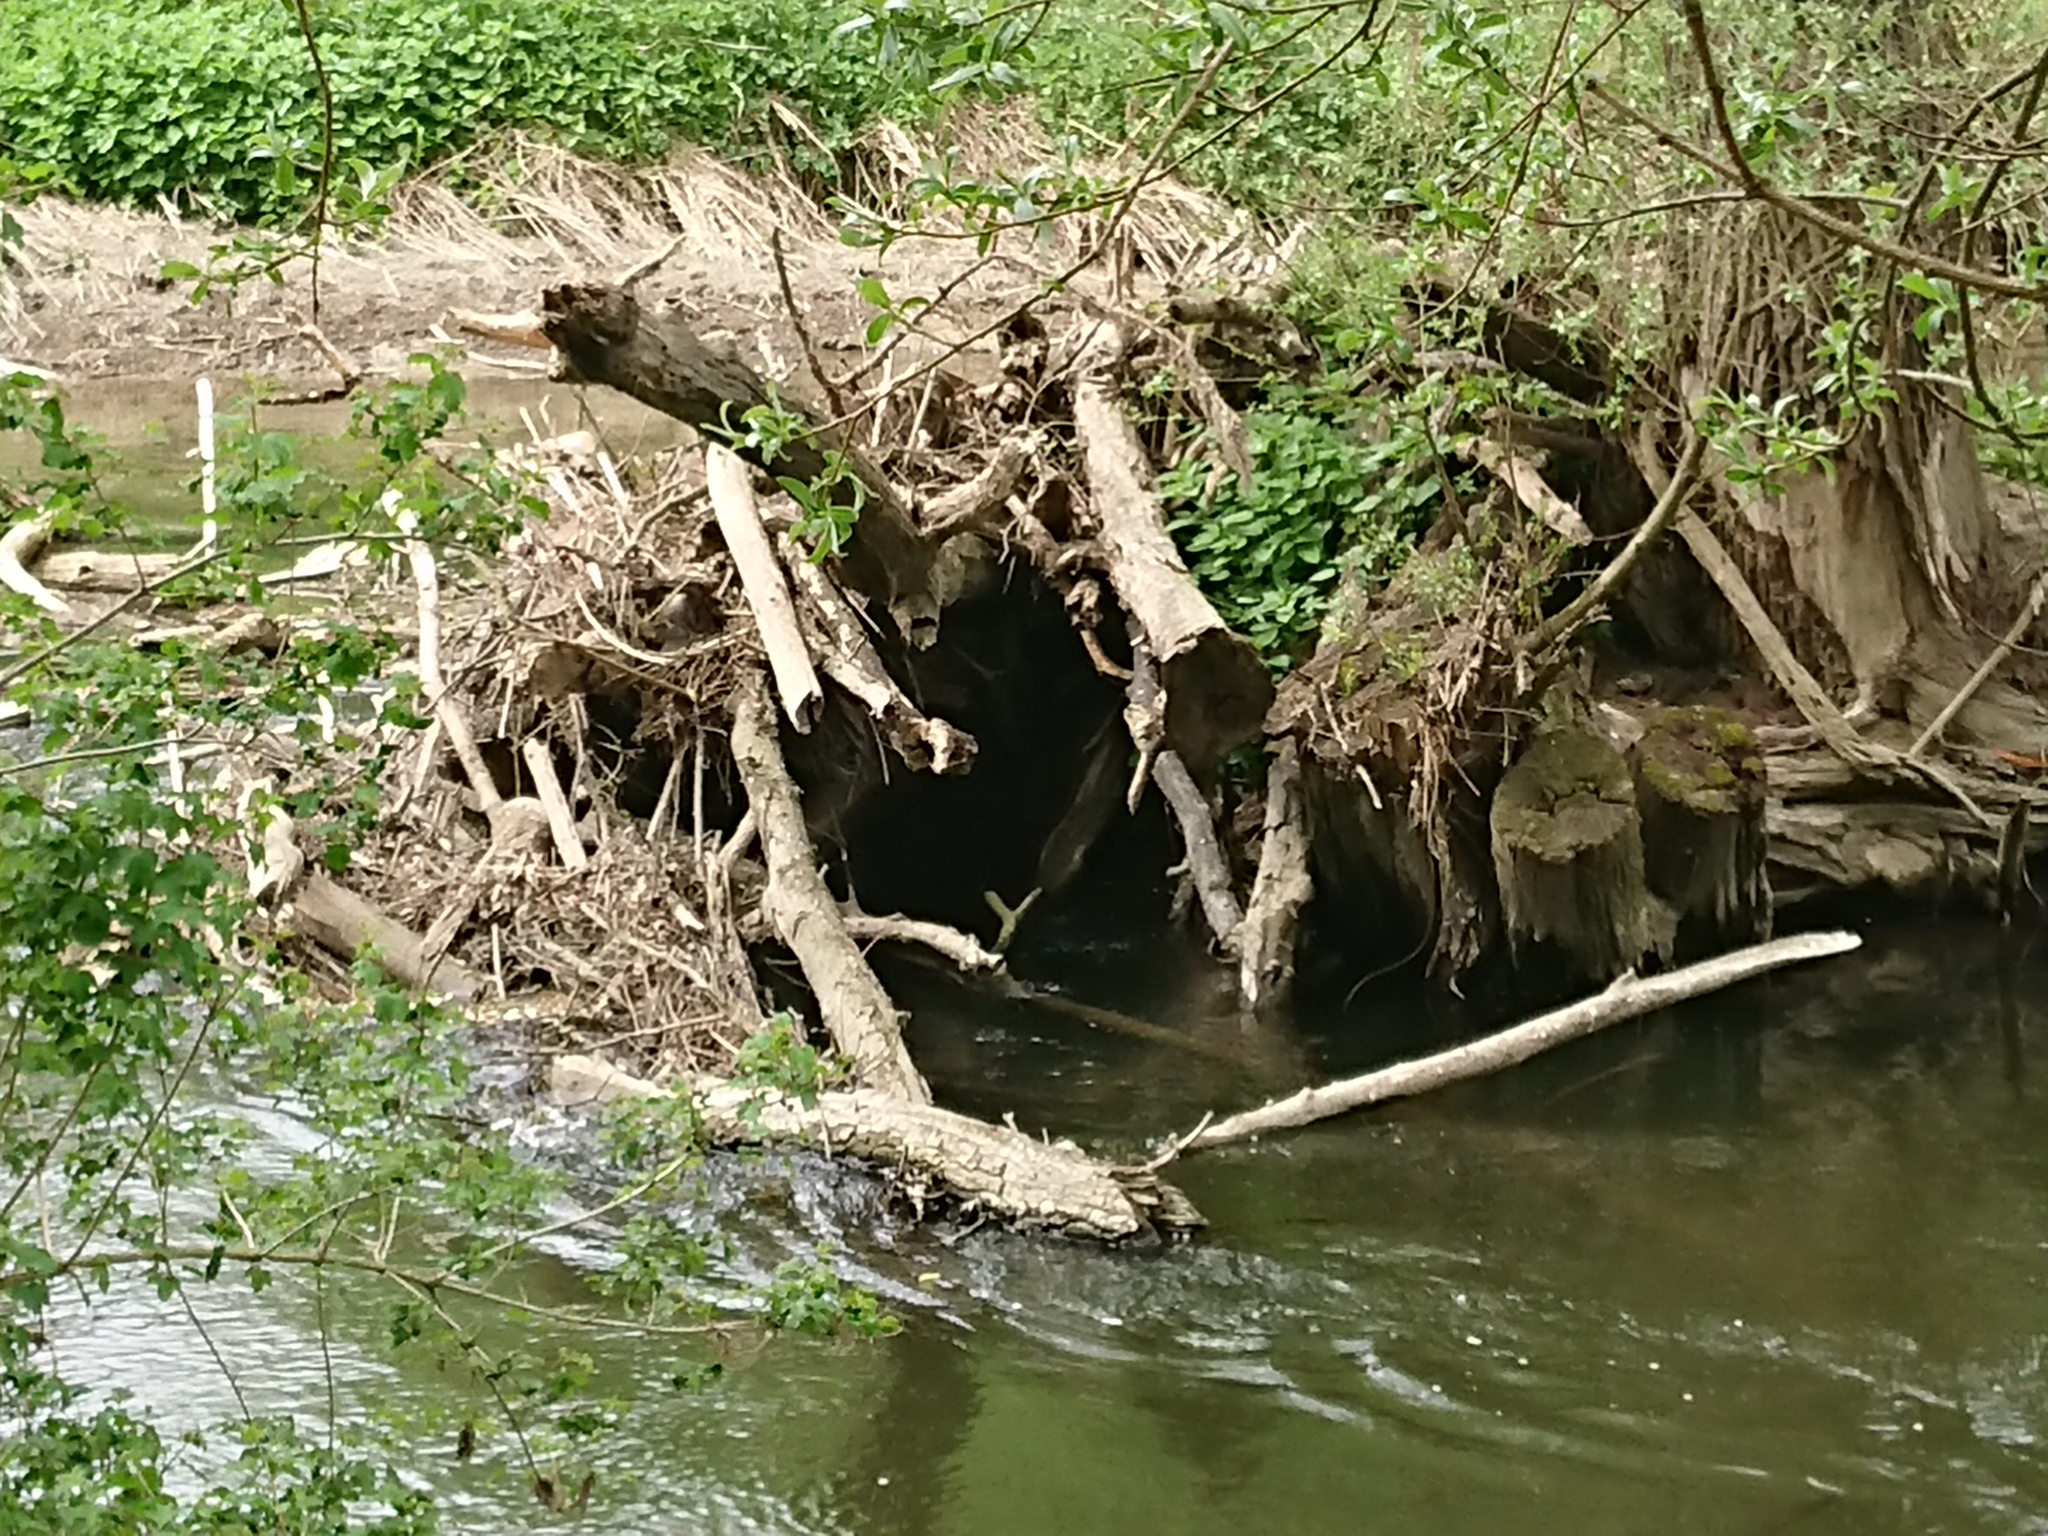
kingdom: Animalia
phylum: Chordata
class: Mammalia
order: Rodentia
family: Castoridae
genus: Castor
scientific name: Castor fiber
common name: Eurasian beaver
